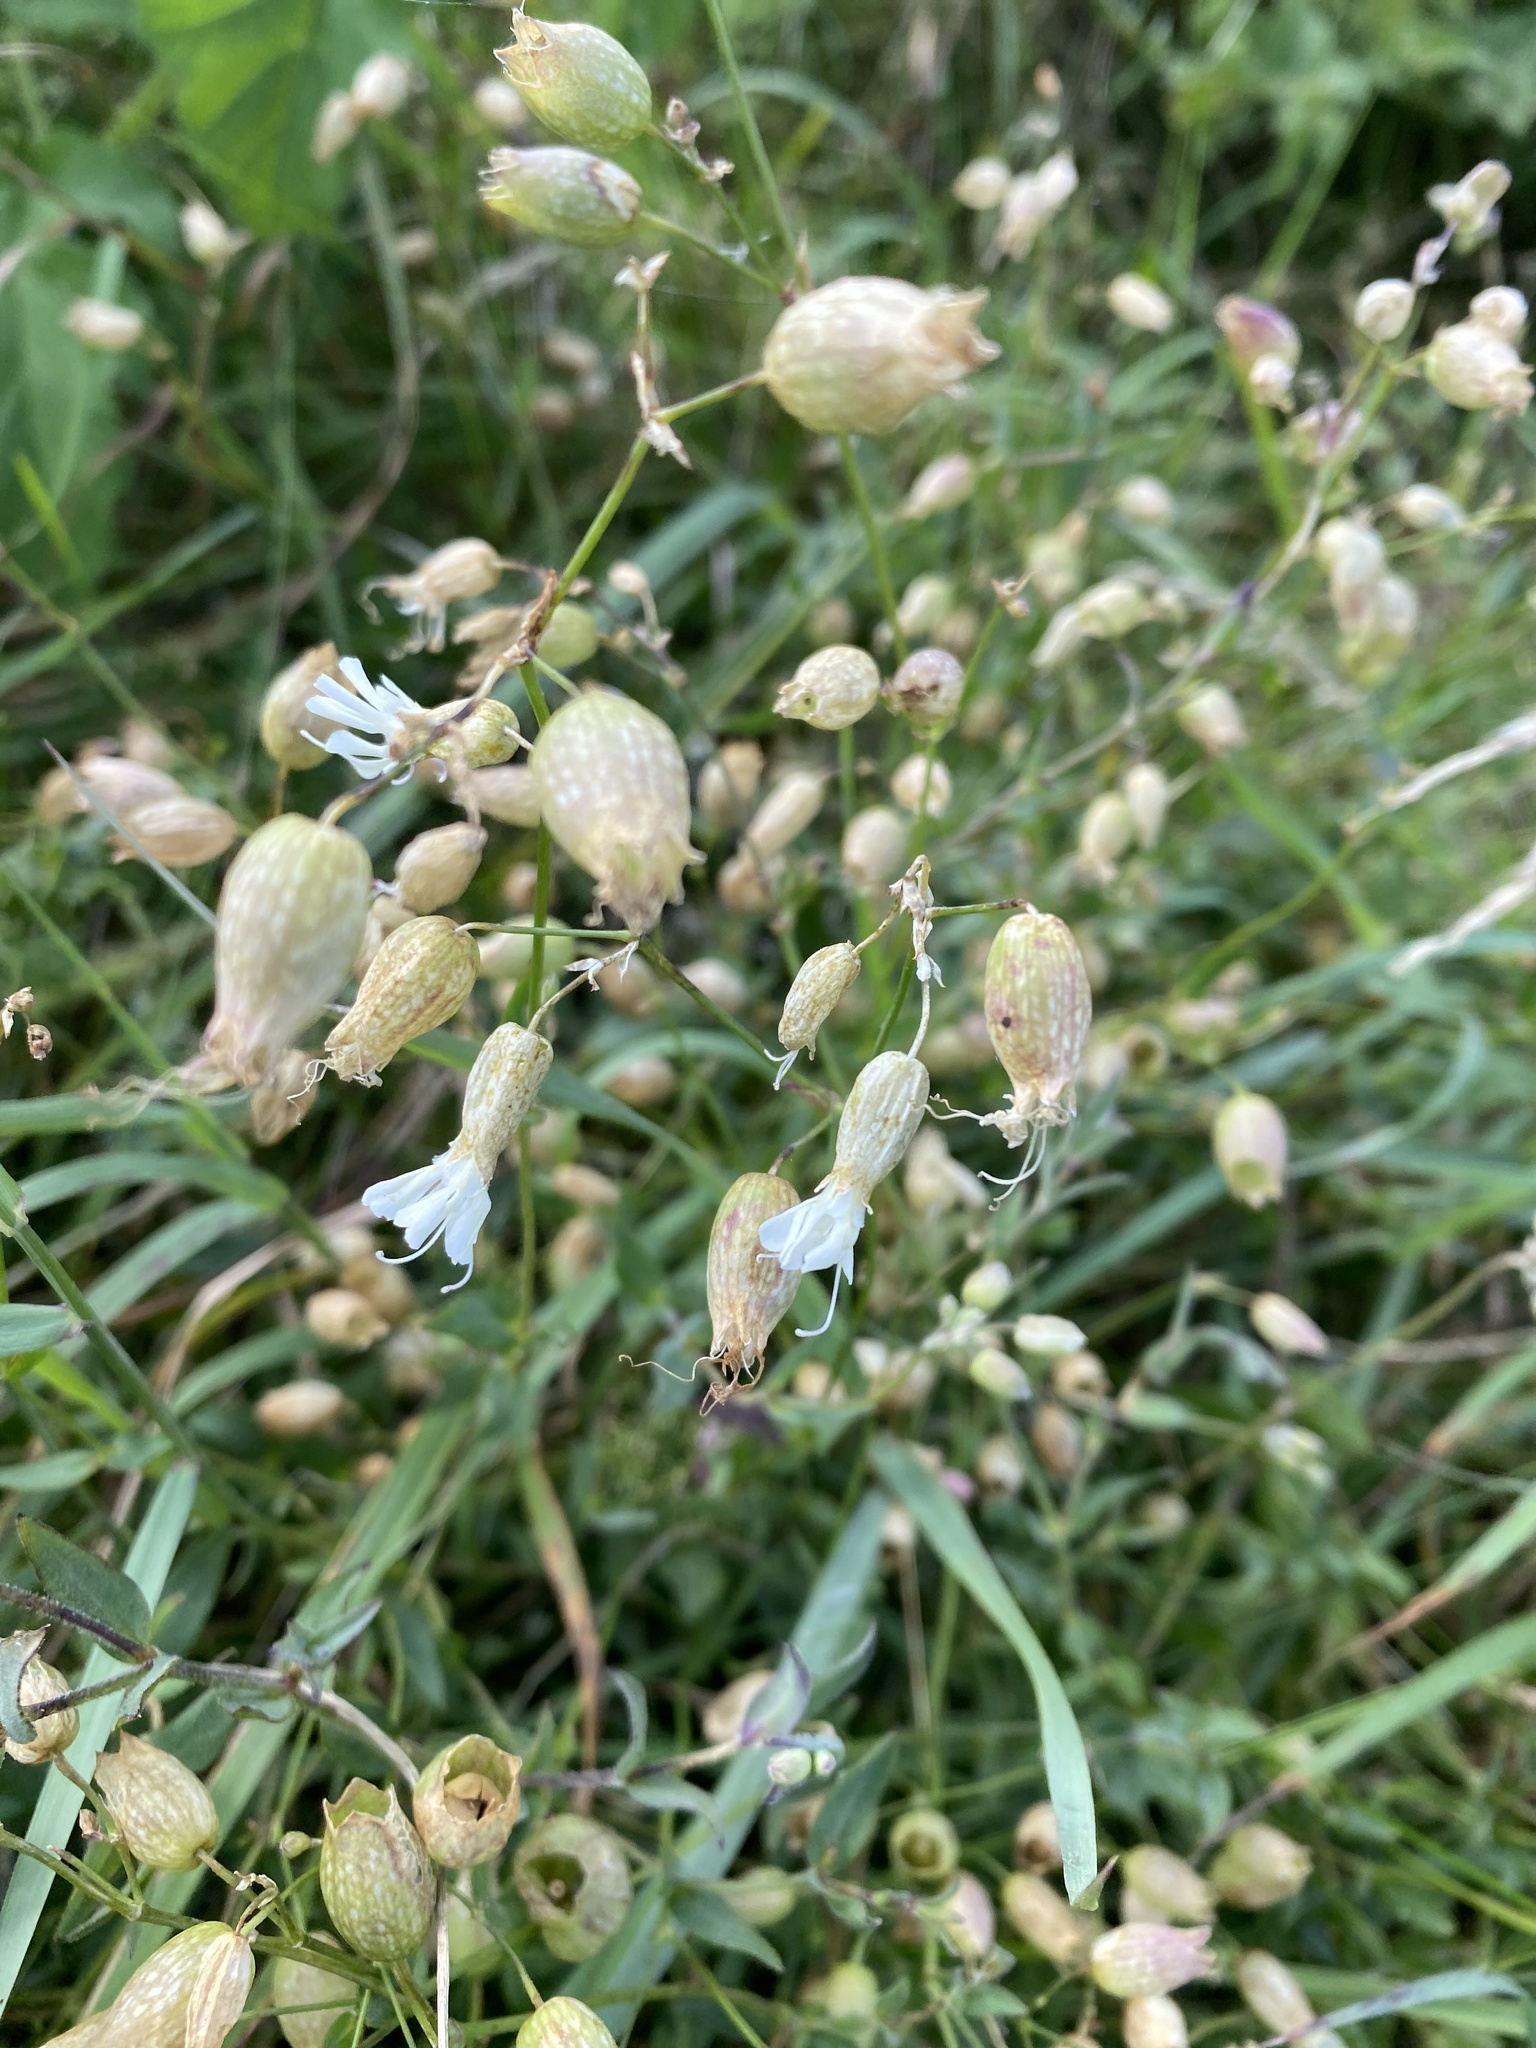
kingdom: Plantae
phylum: Tracheophyta
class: Magnoliopsida
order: Caryophyllales
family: Caryophyllaceae
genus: Silene
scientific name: Silene vulgaris
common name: Bladder campion
